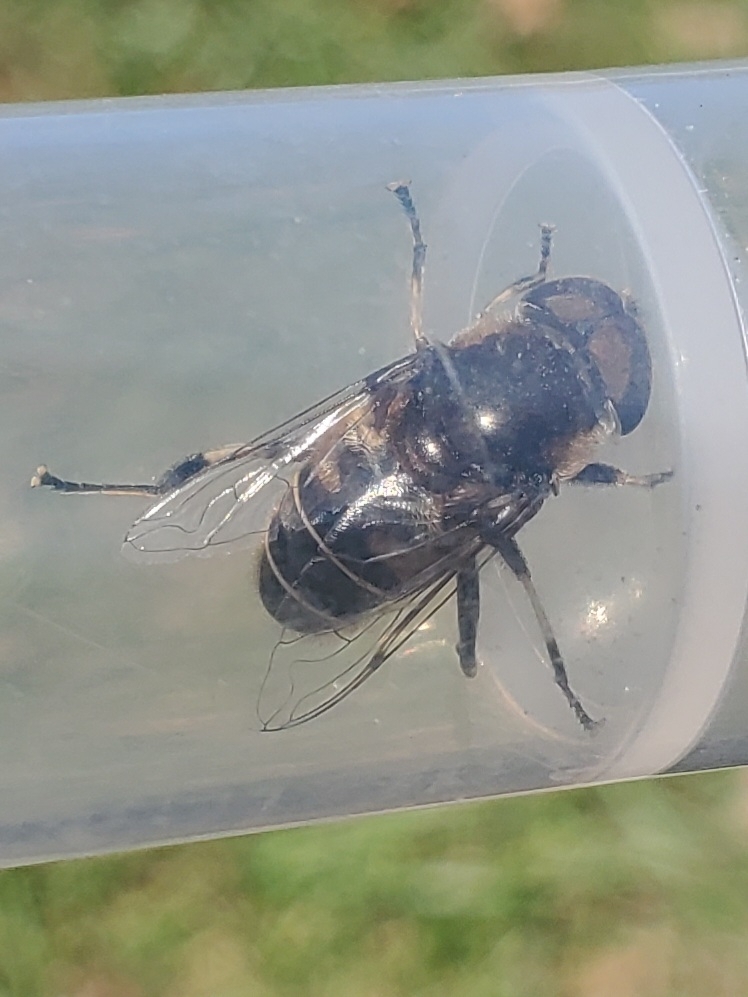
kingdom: Animalia
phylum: Arthropoda
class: Insecta
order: Diptera
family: Syrphidae
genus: Eristalis
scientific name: Eristalis dimidiata
